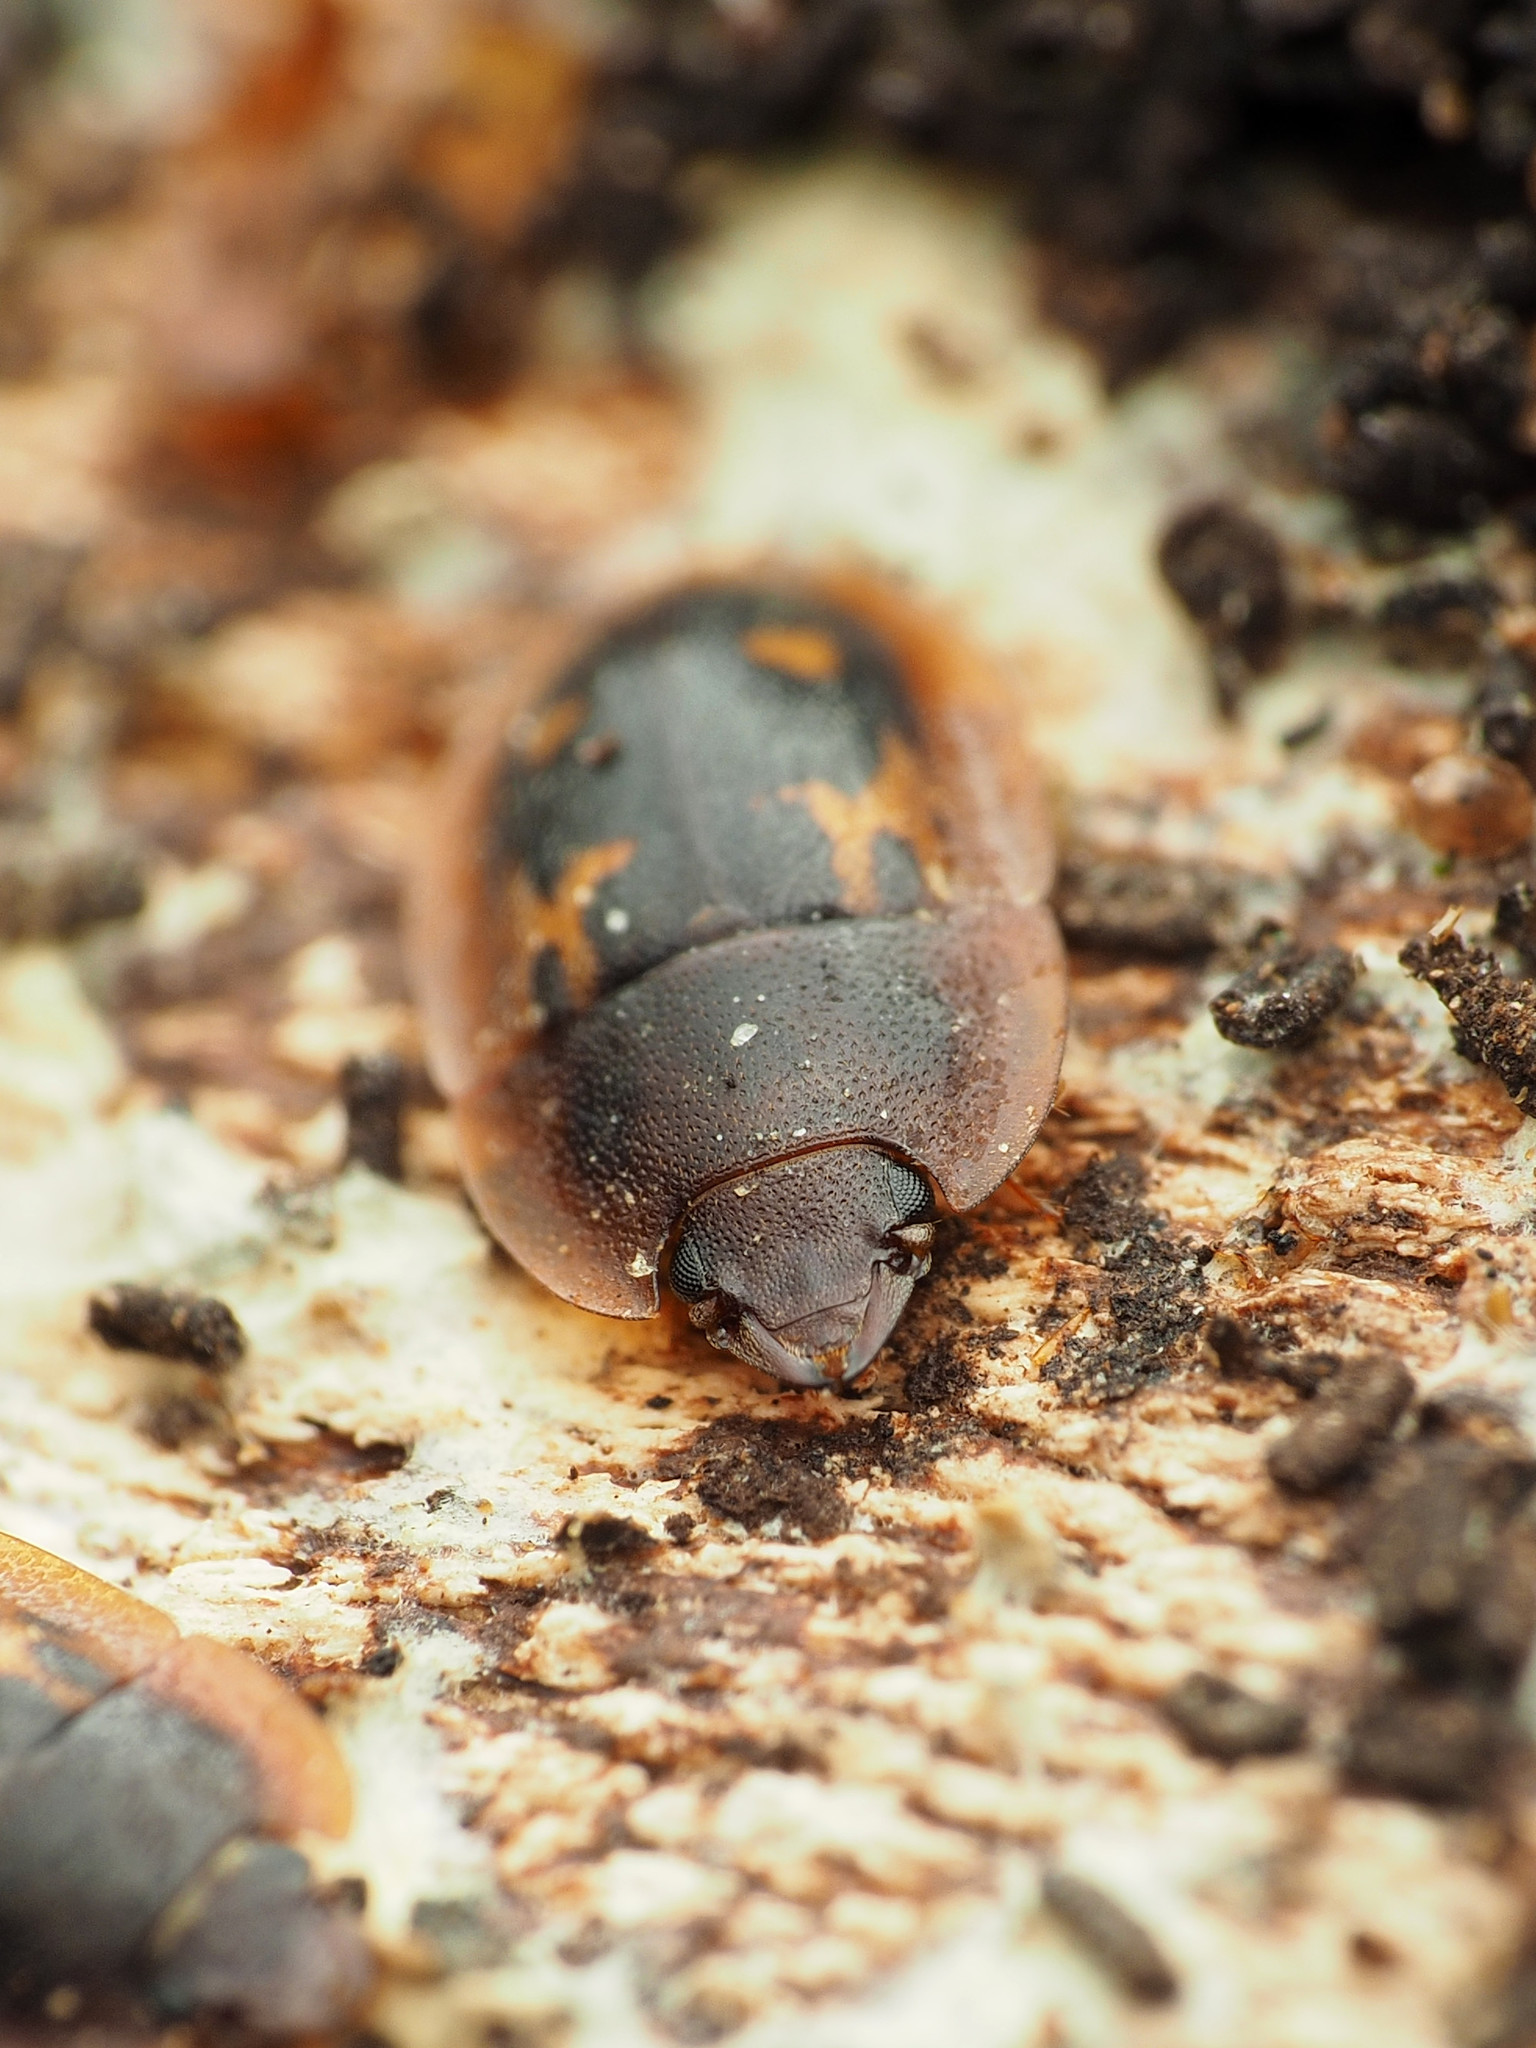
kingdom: Animalia
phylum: Arthropoda
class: Insecta
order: Coleoptera
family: Nitidulidae
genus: Prometopia
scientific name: Prometopia sexmaculata
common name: Six-spotted sap-feeding beetle
